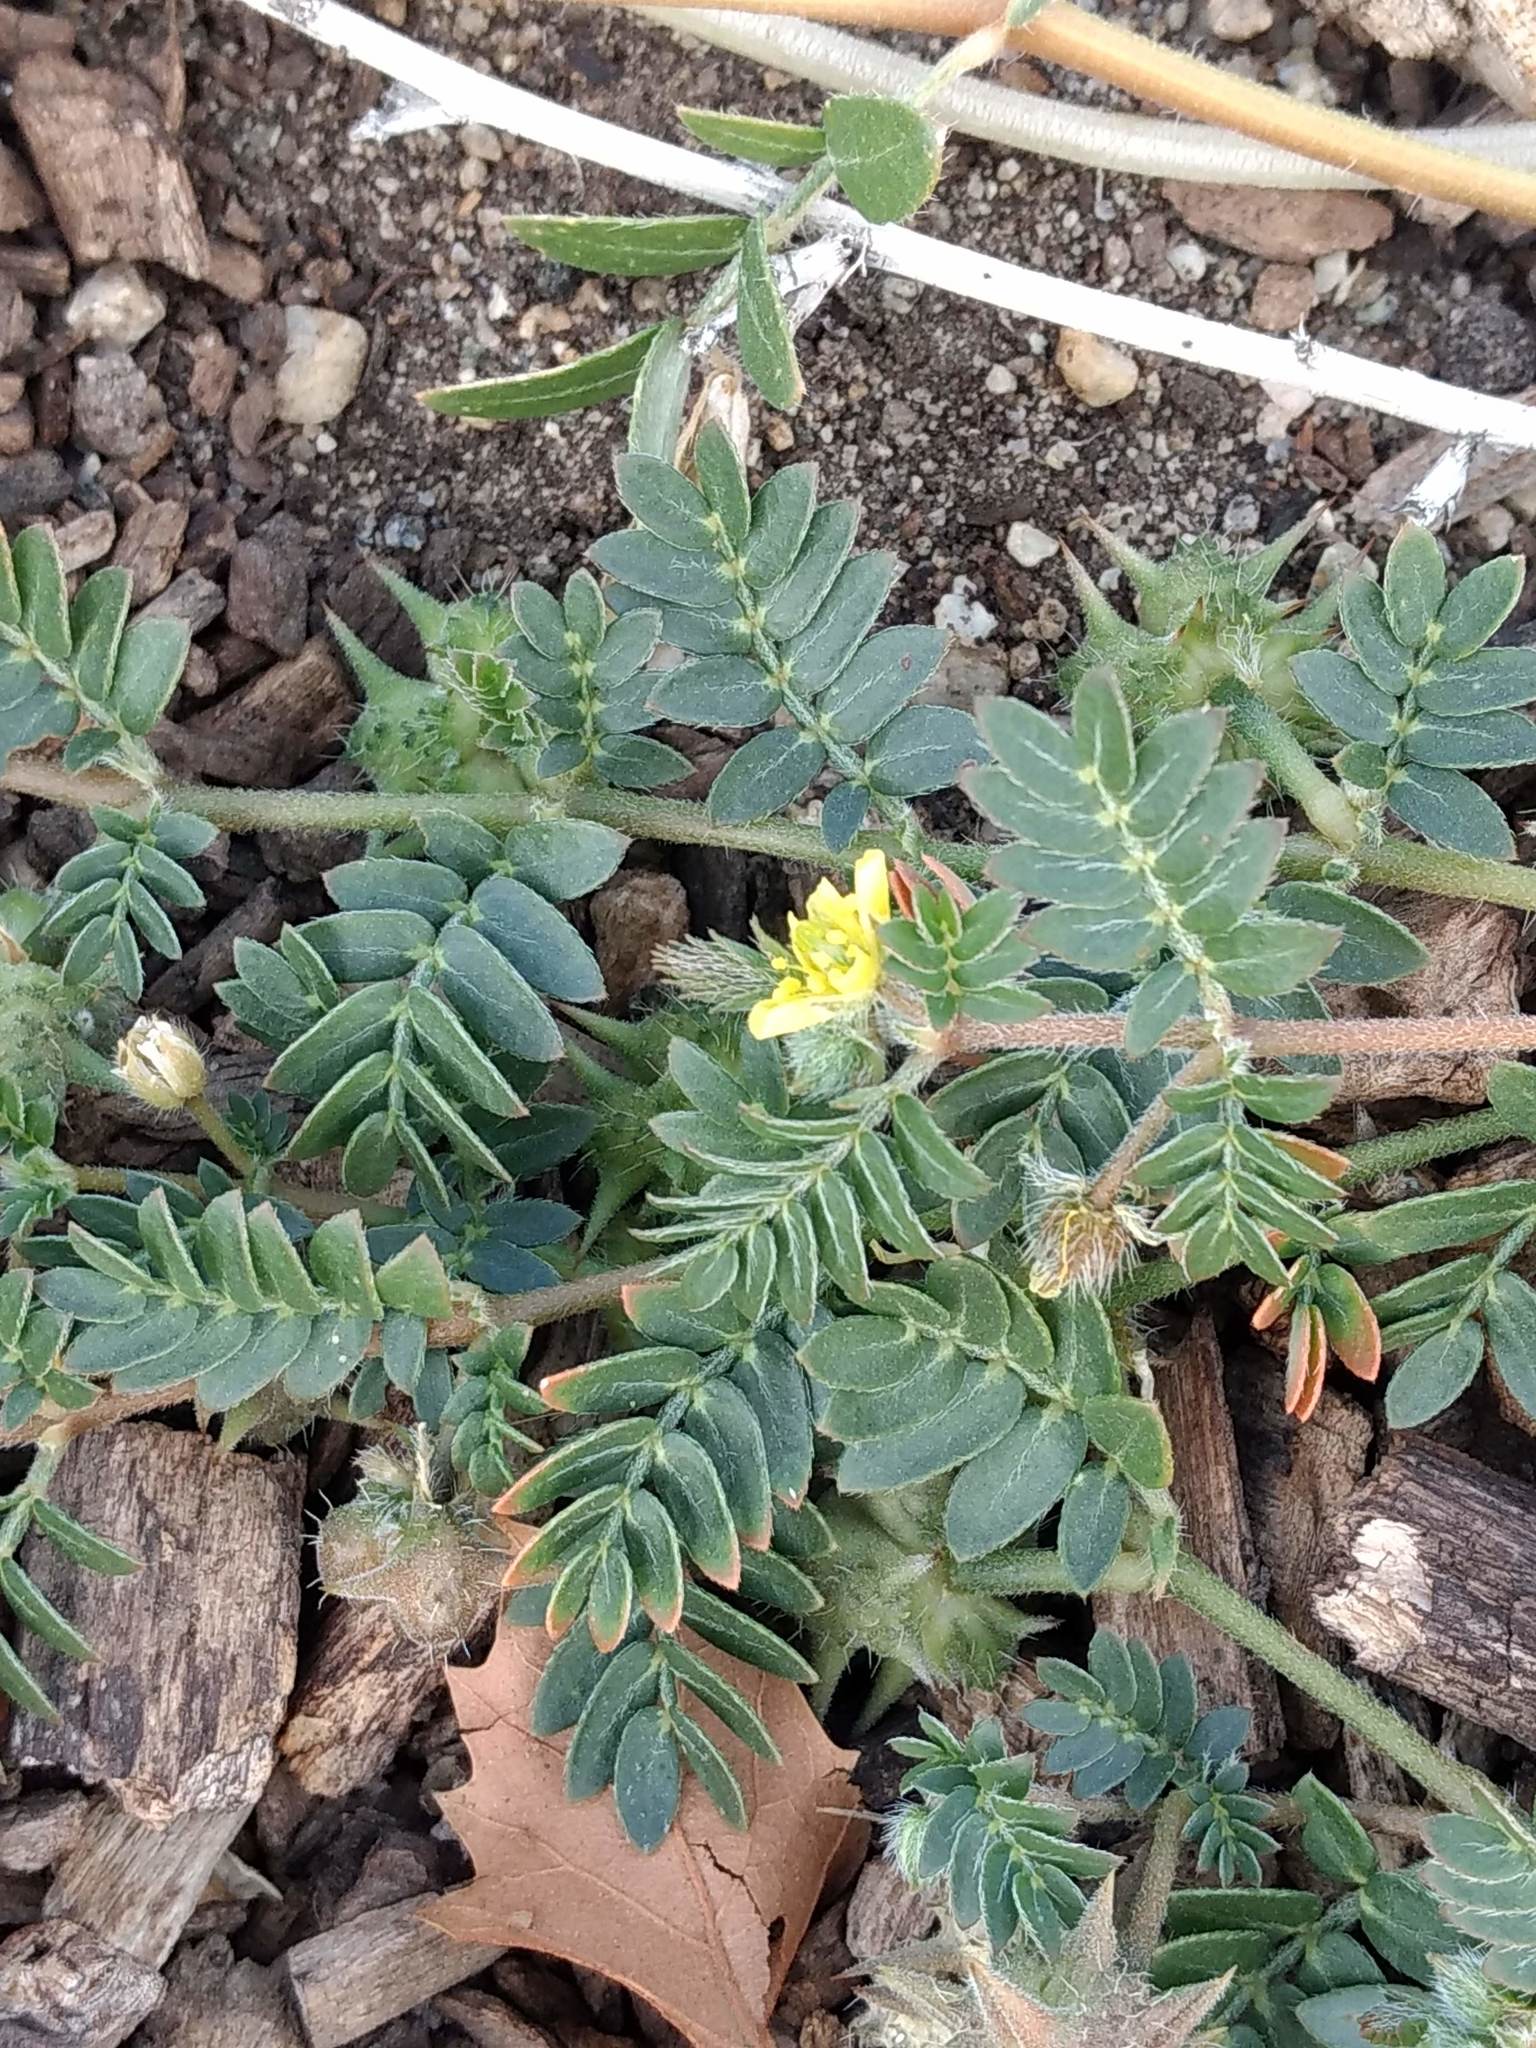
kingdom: Plantae
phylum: Tracheophyta
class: Magnoliopsida
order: Zygophyllales
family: Zygophyllaceae
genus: Tribulus
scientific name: Tribulus terrestris
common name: Puncturevine
